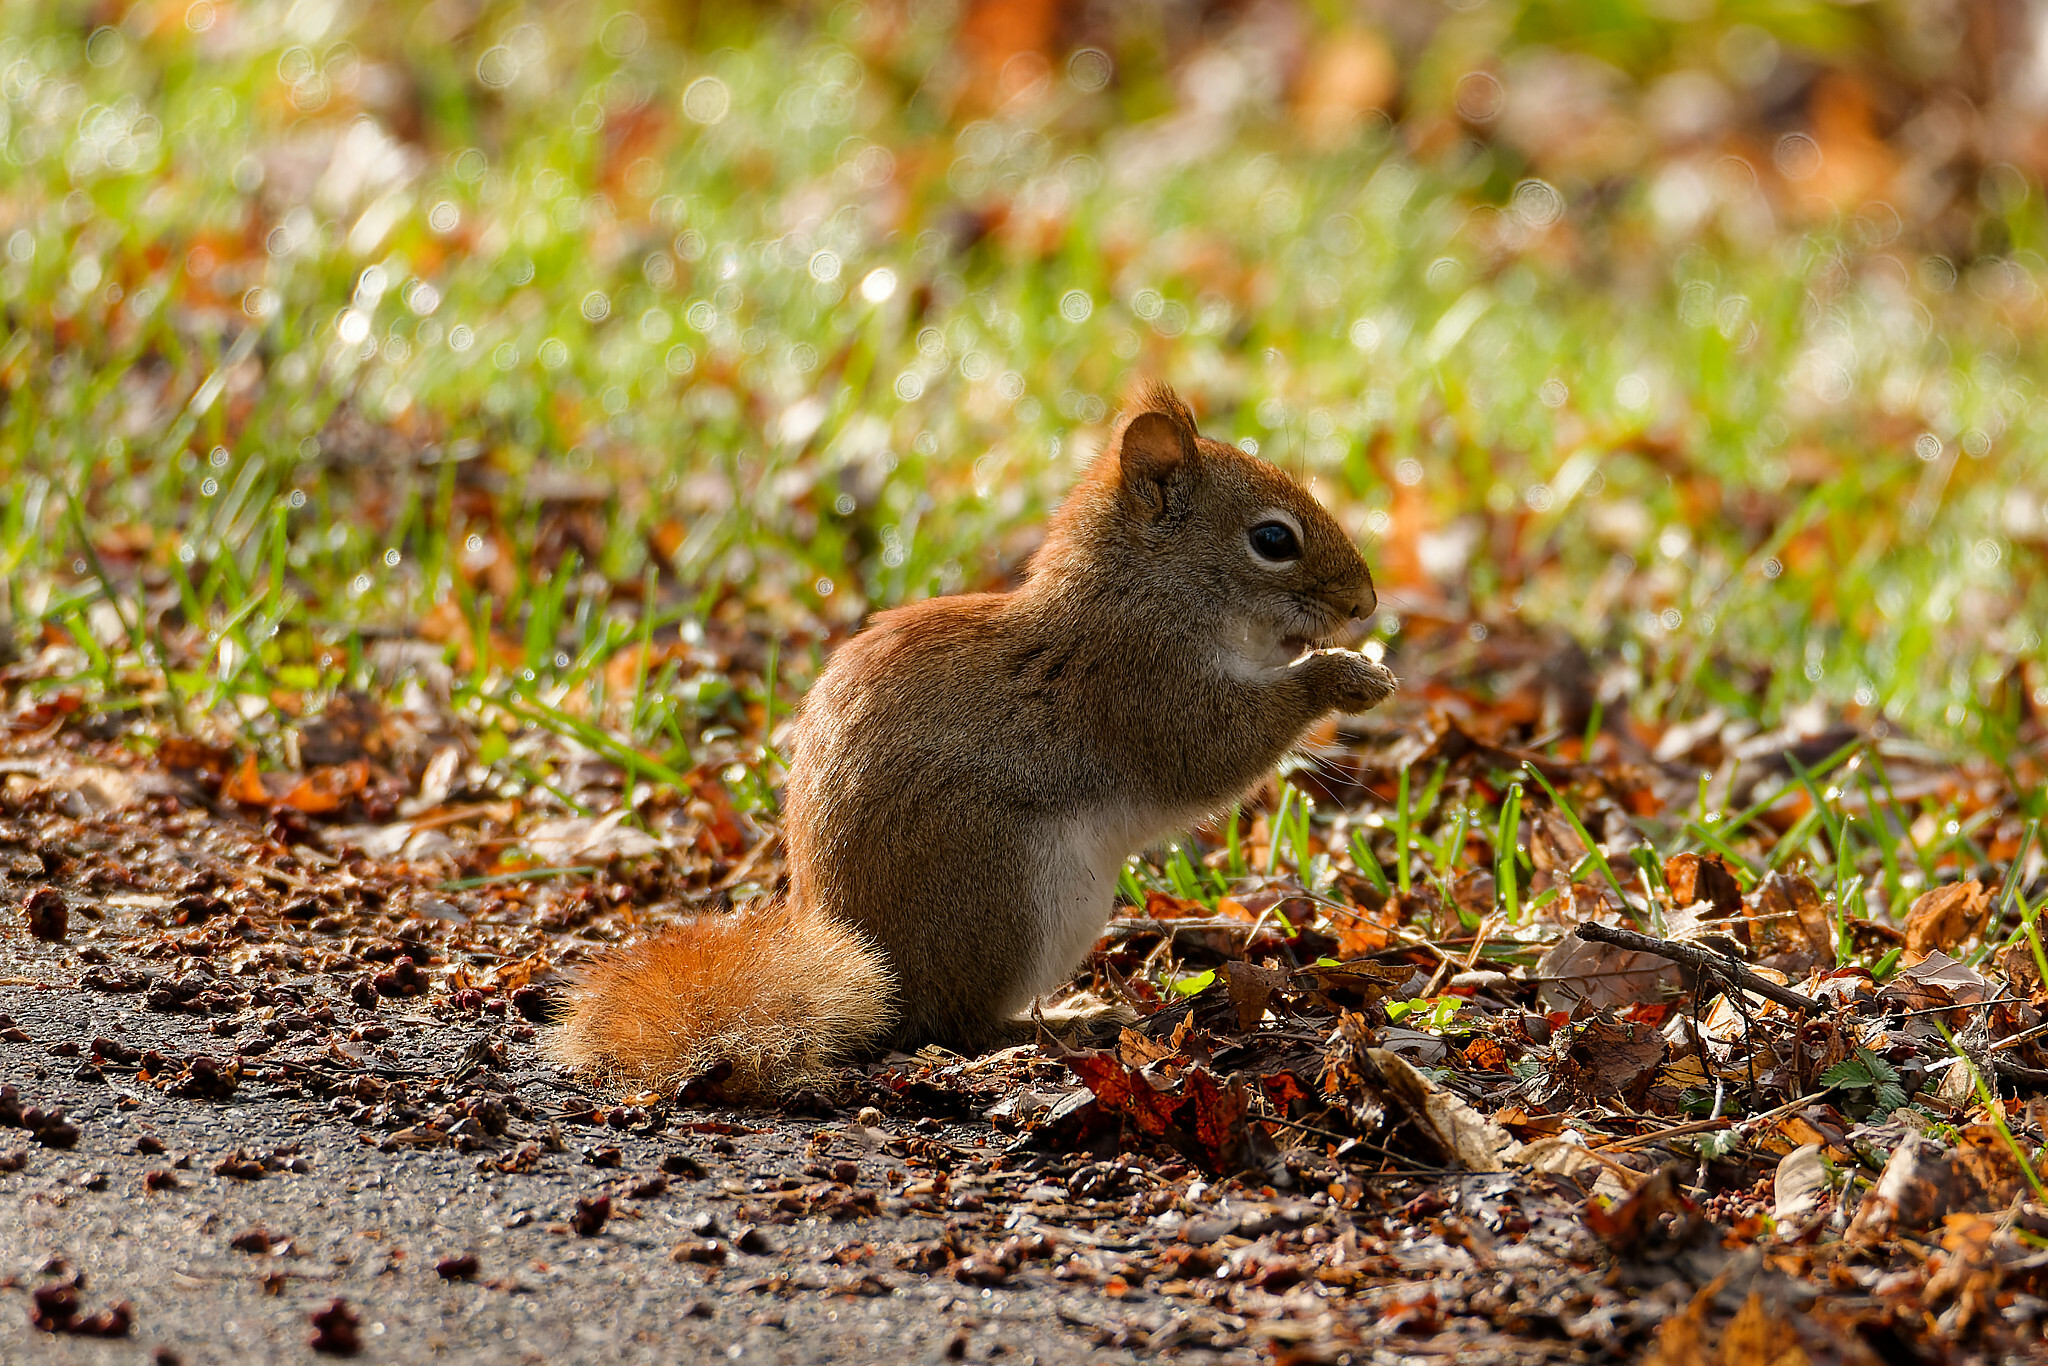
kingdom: Animalia
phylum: Chordata
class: Mammalia
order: Rodentia
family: Sciuridae
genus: Tamiasciurus
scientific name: Tamiasciurus hudsonicus
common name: Red squirrel
